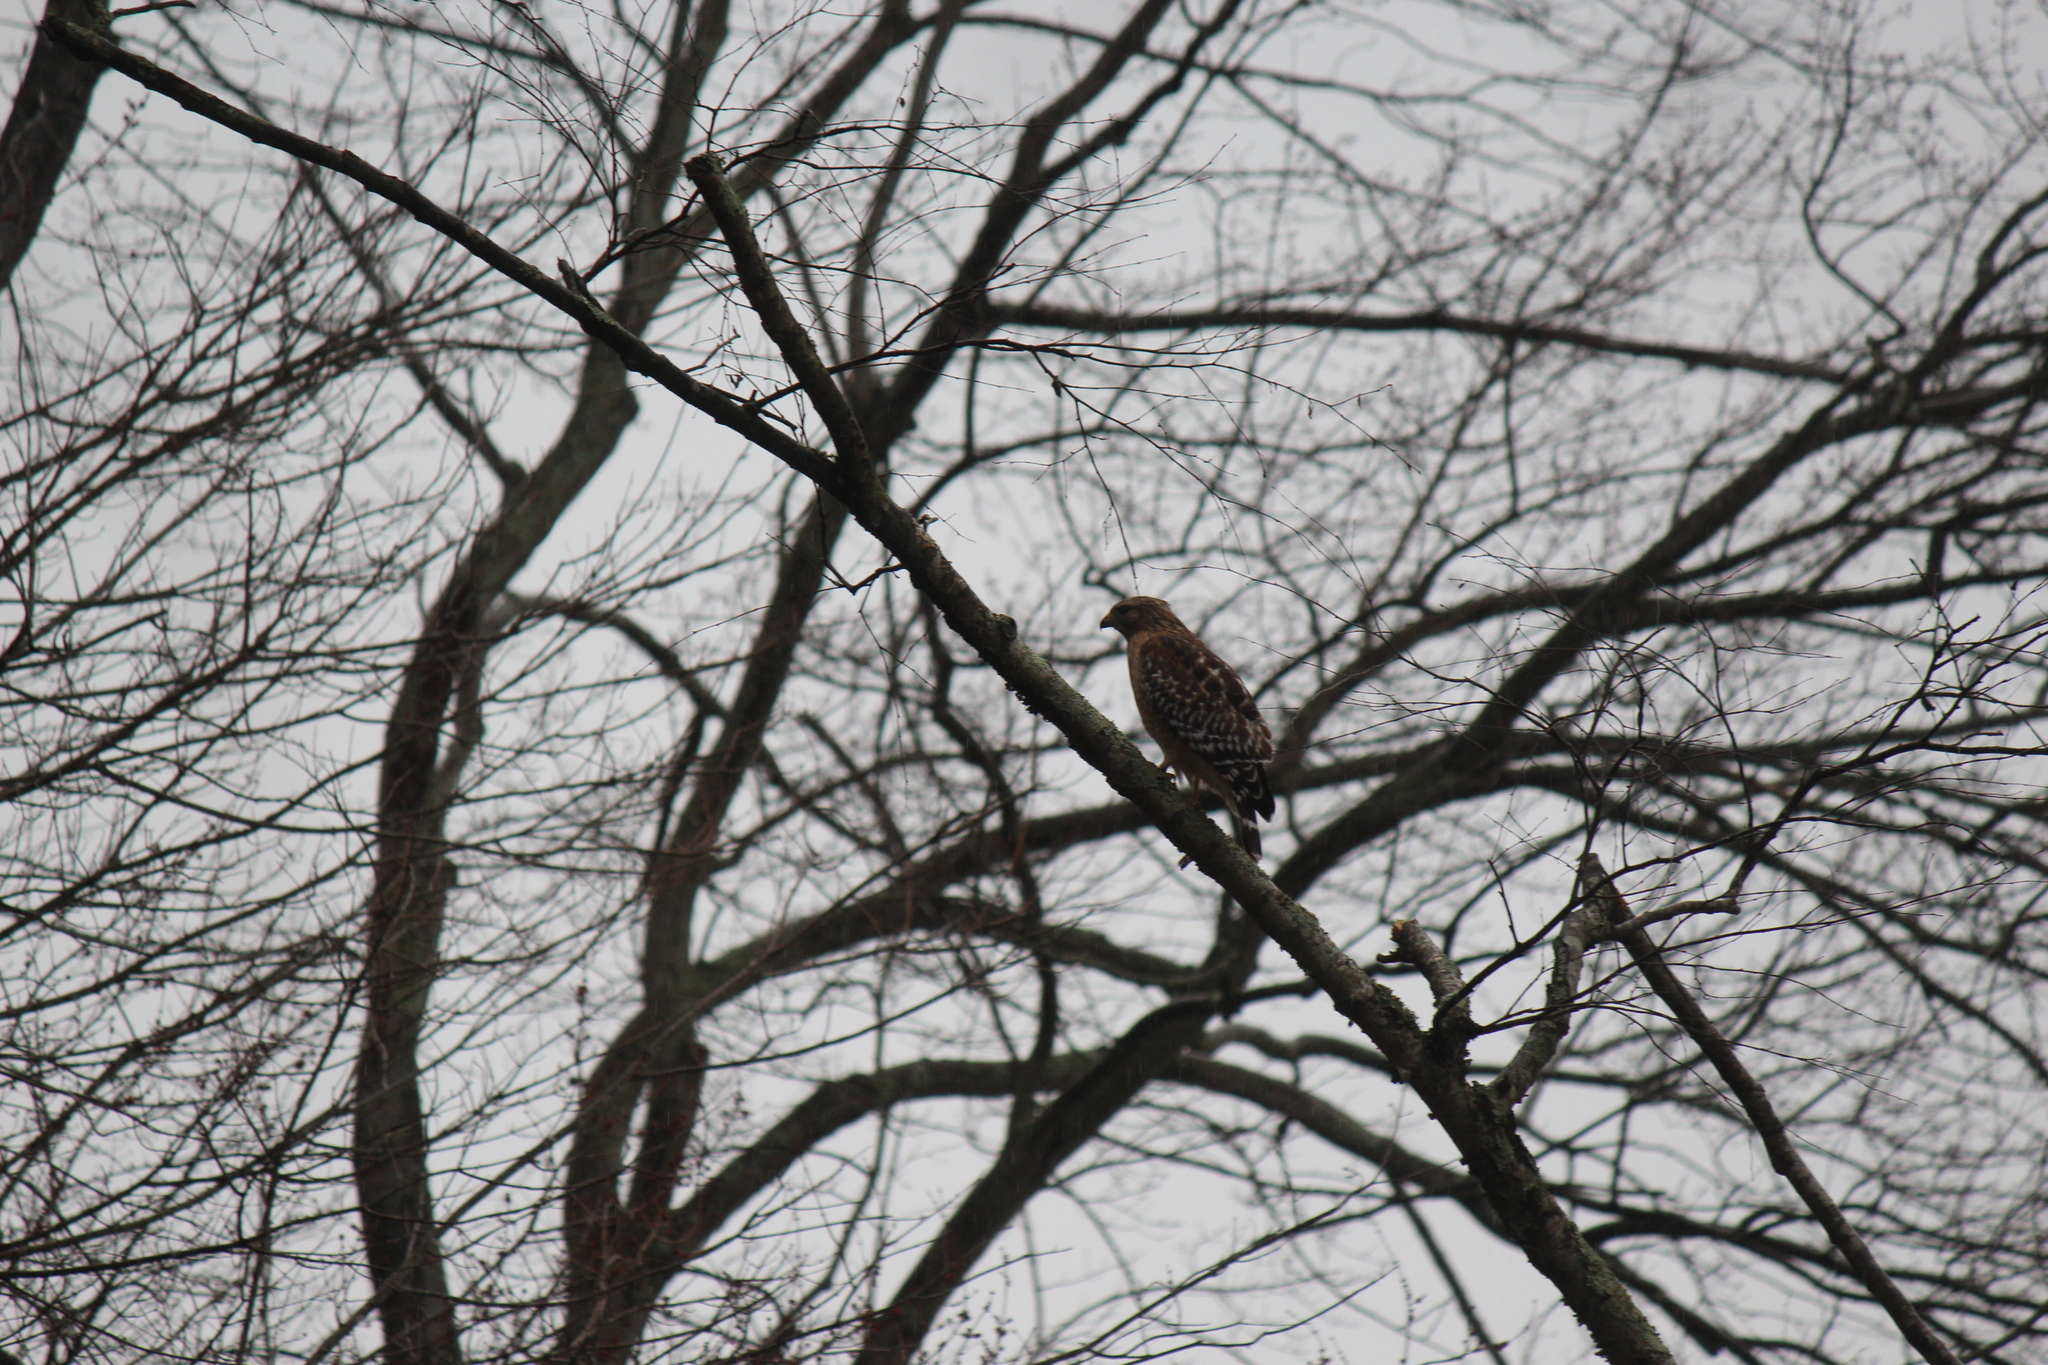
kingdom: Animalia
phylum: Chordata
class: Aves
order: Accipitriformes
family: Accipitridae
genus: Buteo
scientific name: Buteo lineatus
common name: Red-shouldered hawk
